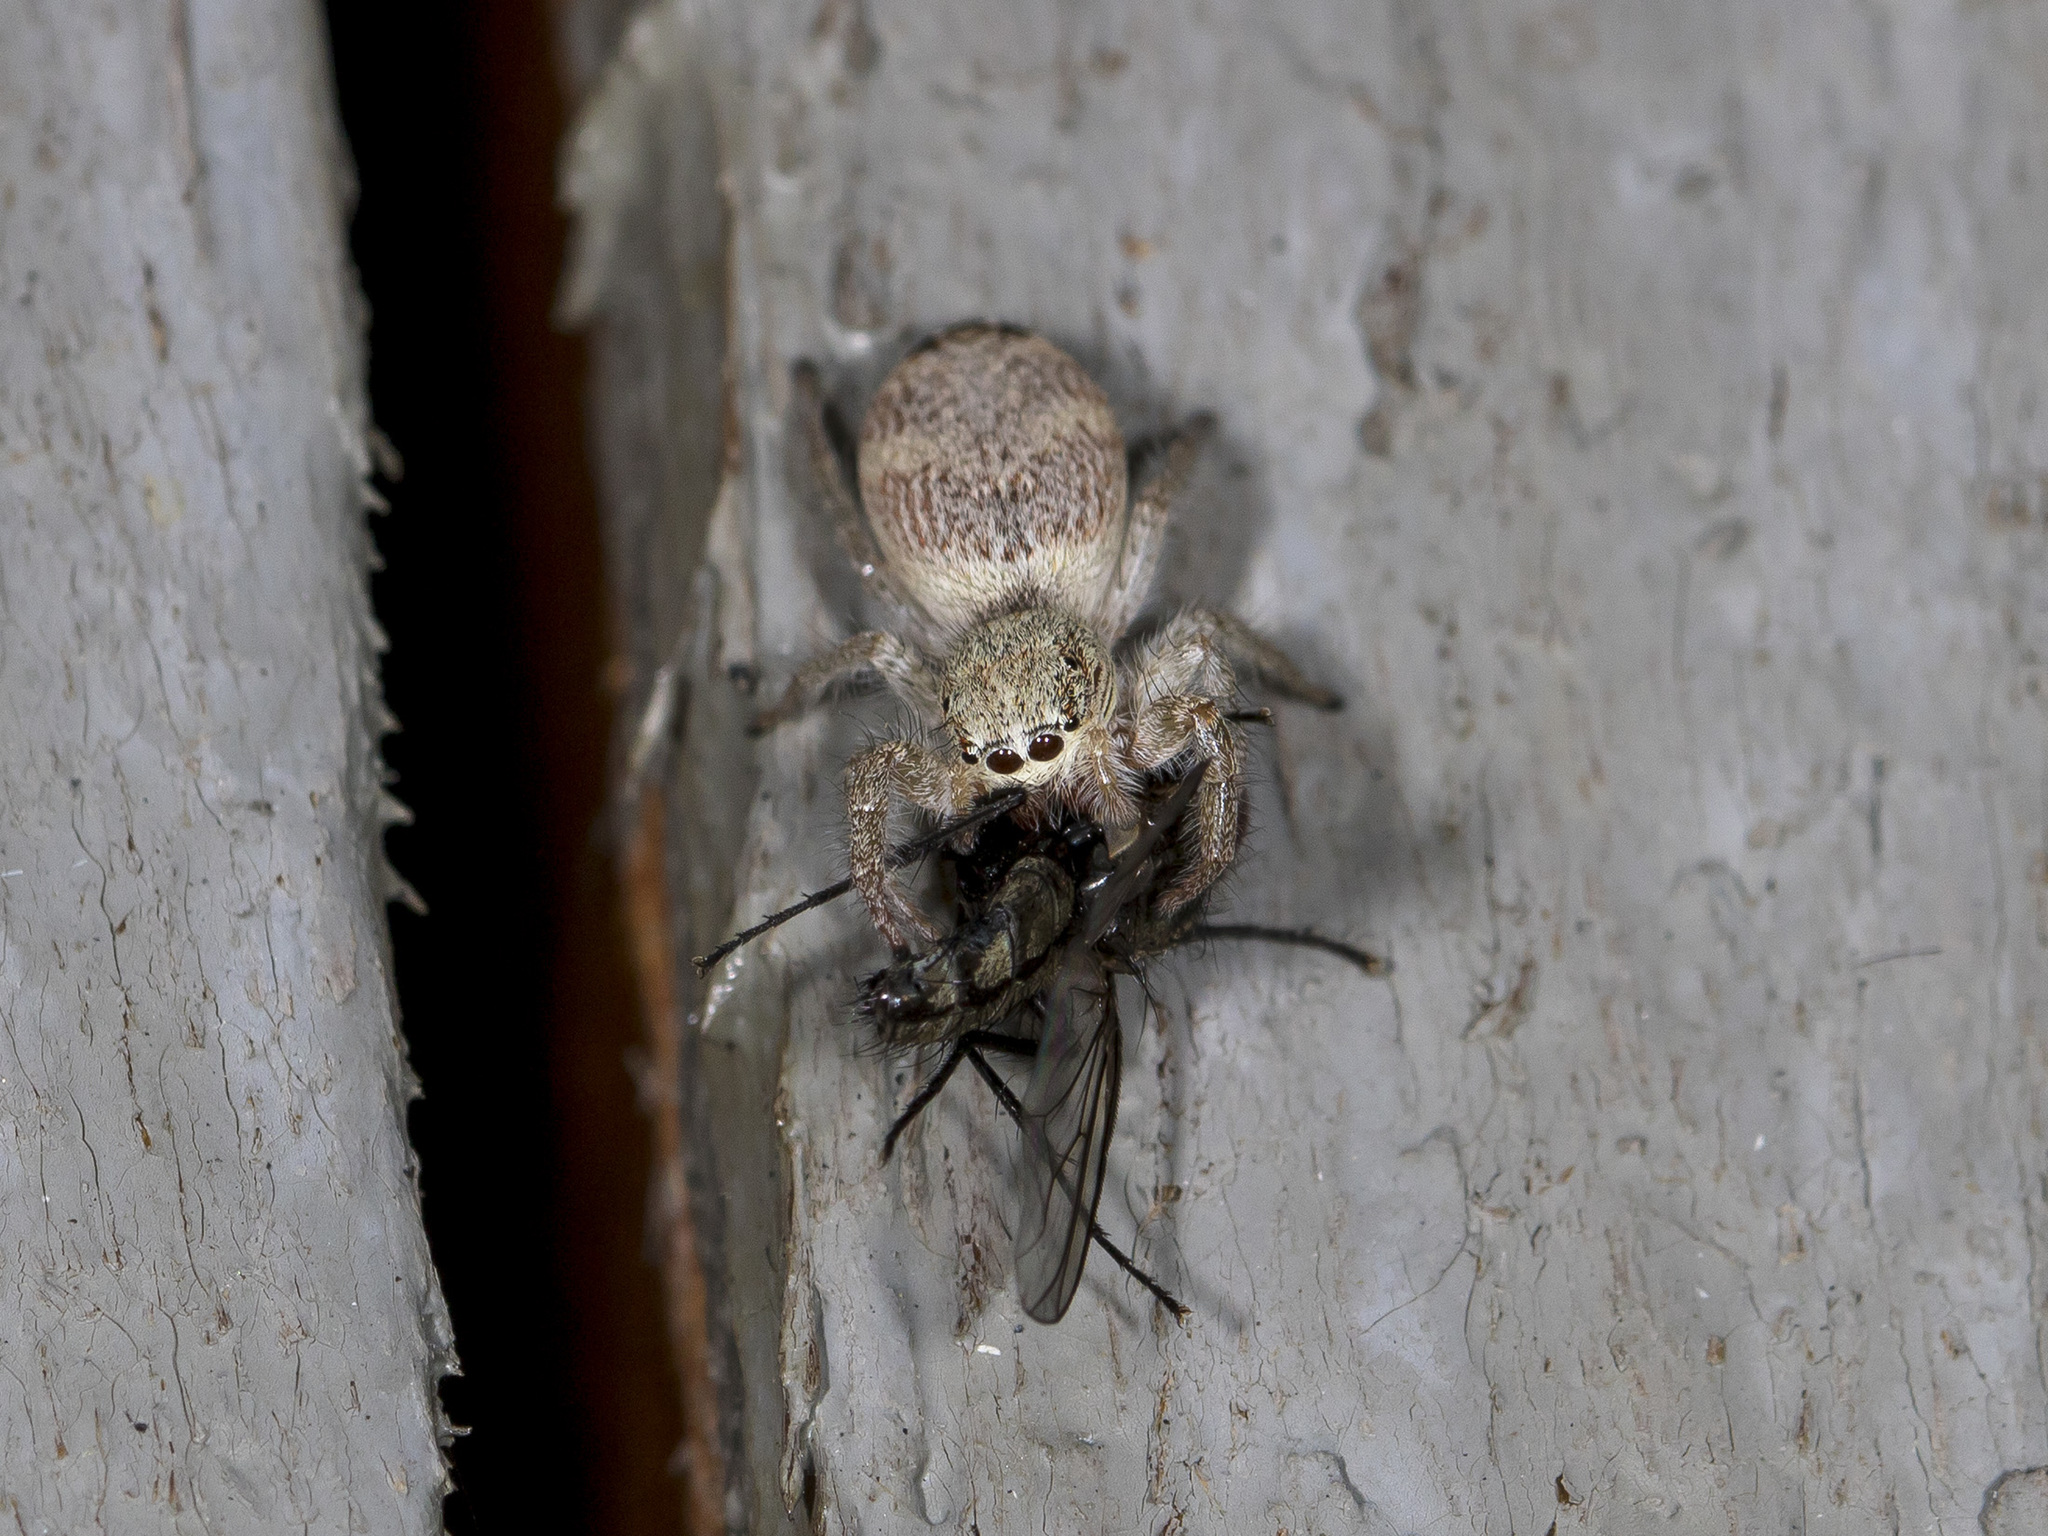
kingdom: Animalia
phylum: Arthropoda
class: Arachnida
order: Araneae
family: Salticidae
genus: Rudakius
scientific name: Rudakius cinctus
